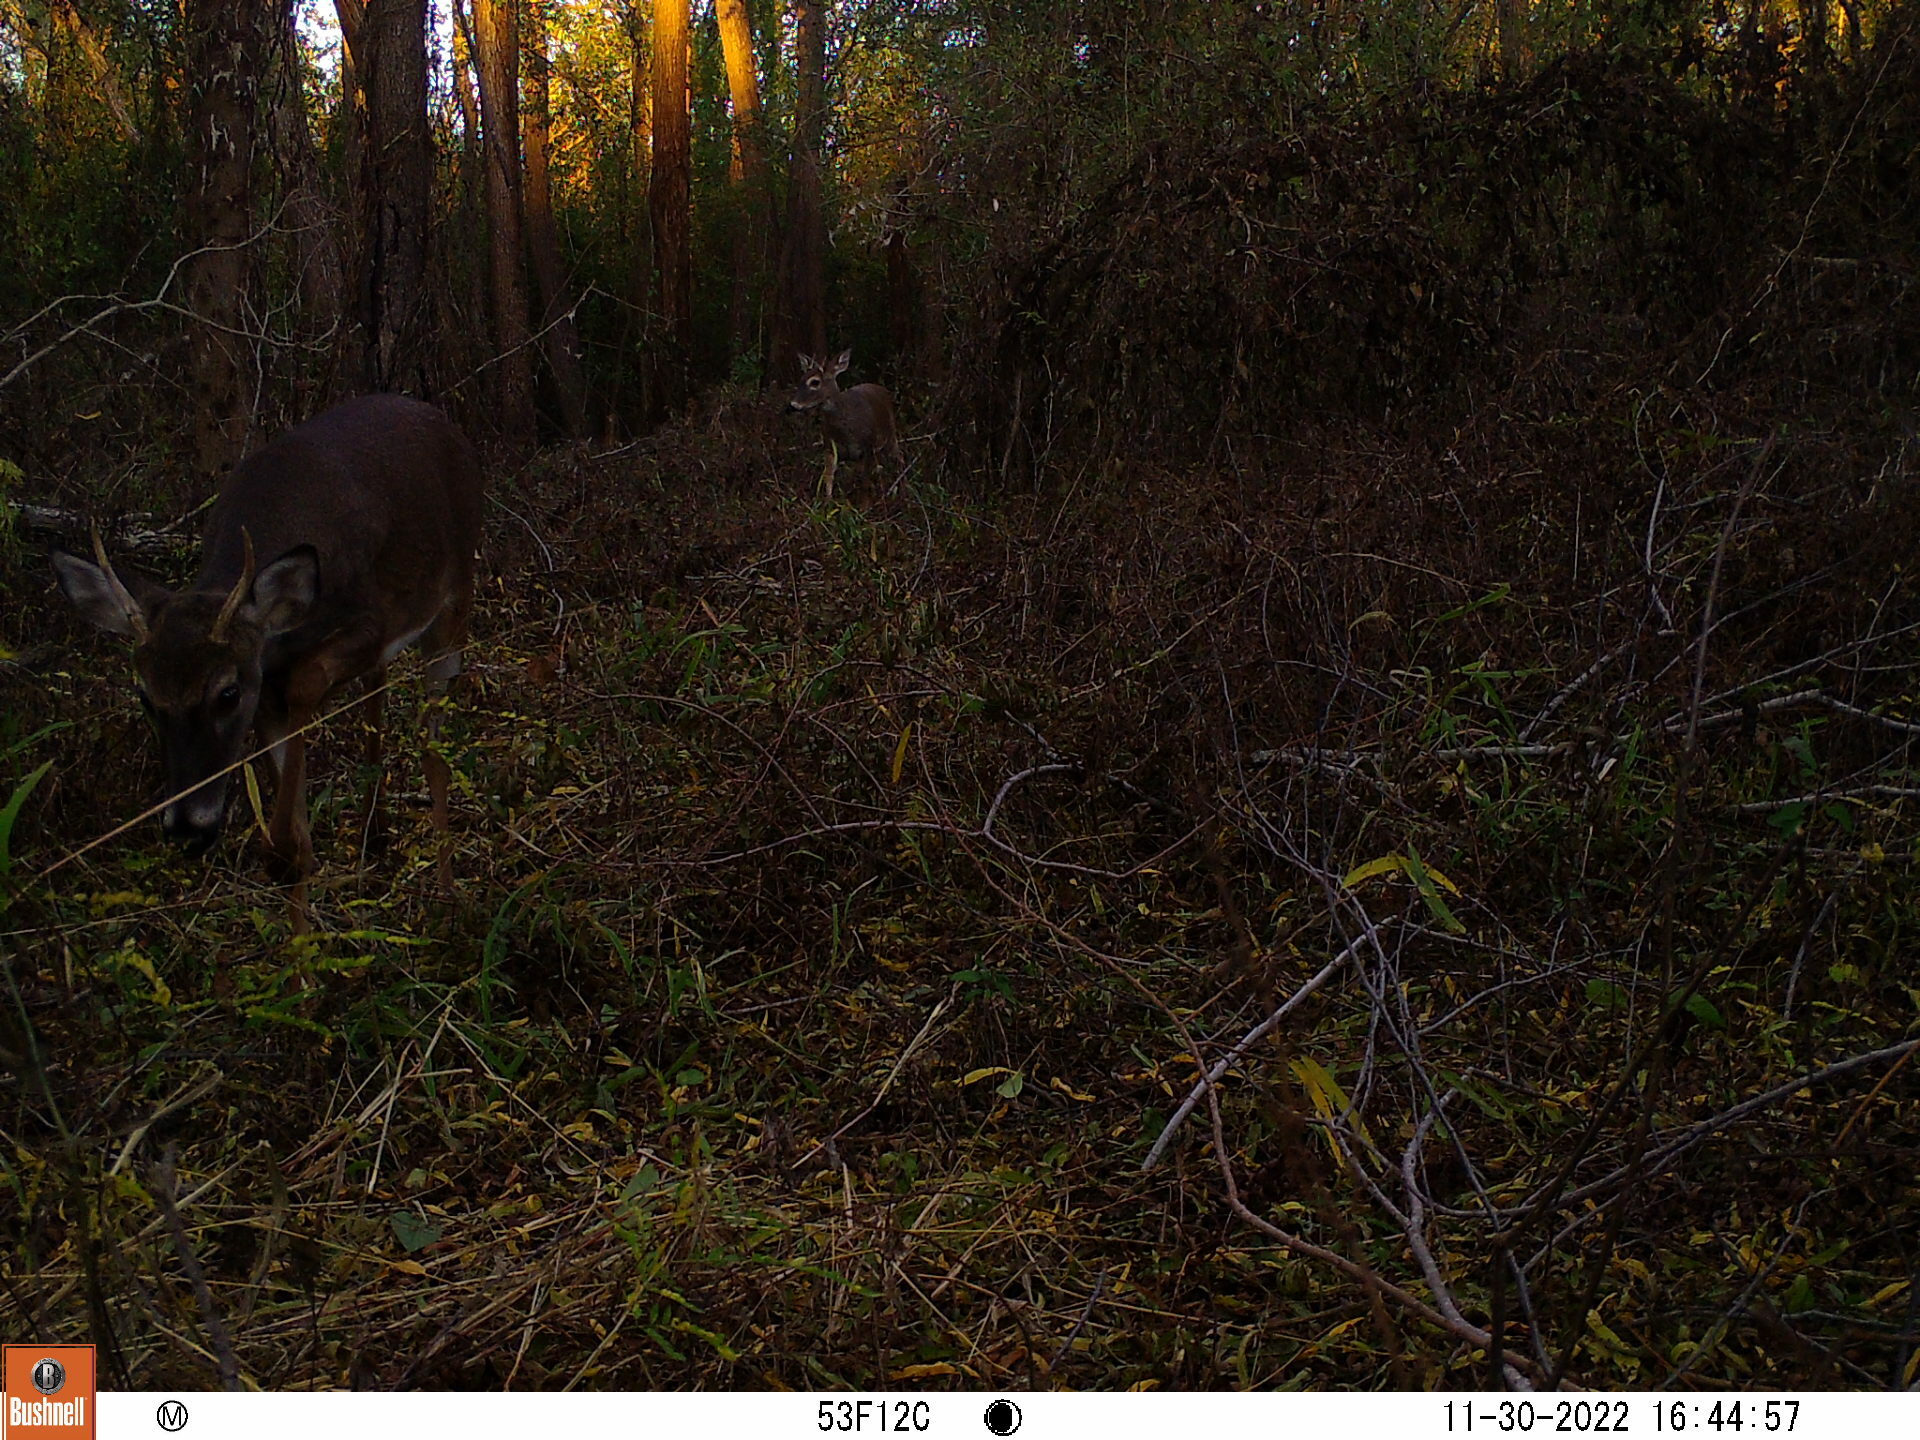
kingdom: Animalia
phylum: Chordata
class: Mammalia
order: Artiodactyla
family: Cervidae
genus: Odocoileus
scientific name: Odocoileus virginianus
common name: White-tailed deer
